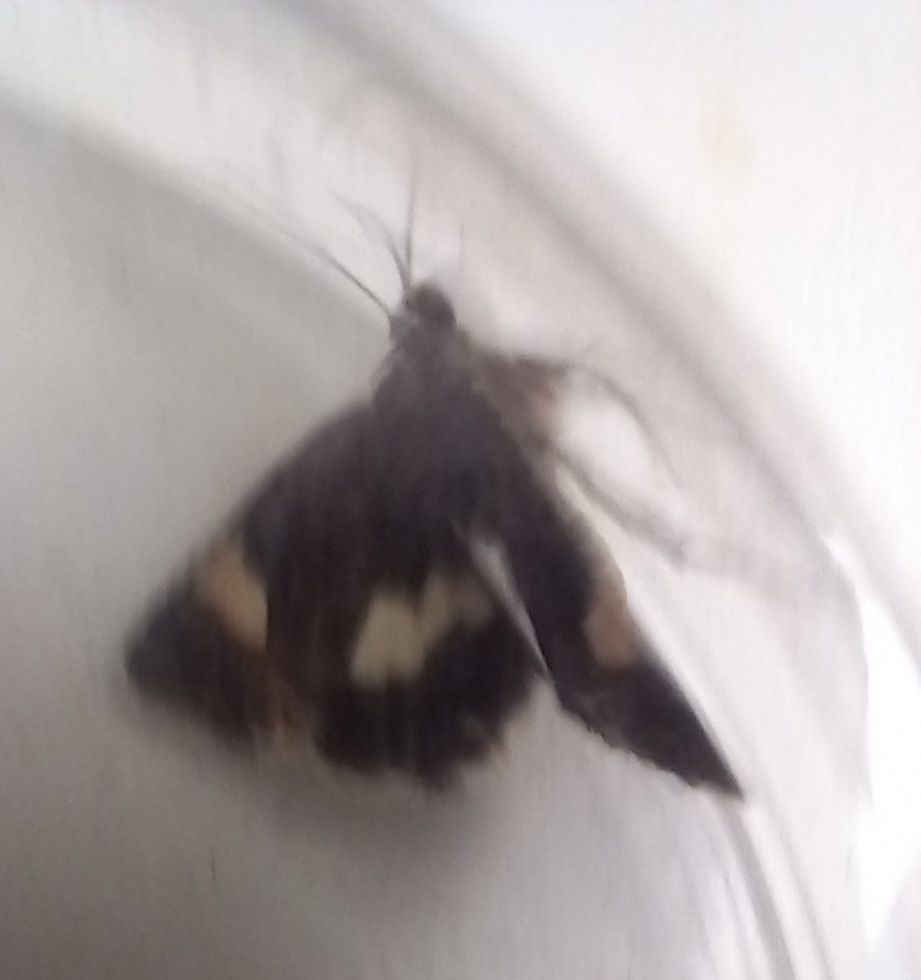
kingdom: Animalia
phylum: Arthropoda
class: Insecta
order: Lepidoptera
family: Erebidae
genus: Tyta
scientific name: Tyta luctuosa
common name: Four-spotted
